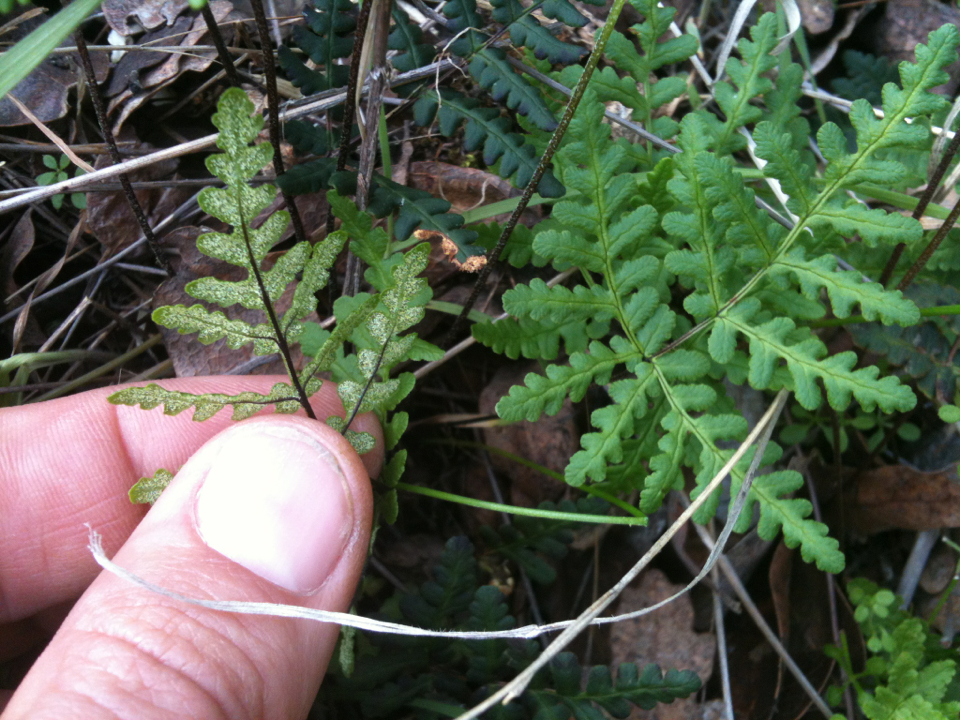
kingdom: Plantae
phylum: Tracheophyta
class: Polypodiopsida
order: Polypodiales
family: Pteridaceae
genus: Pentagramma
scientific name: Pentagramma triangularis
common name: Gold fern
